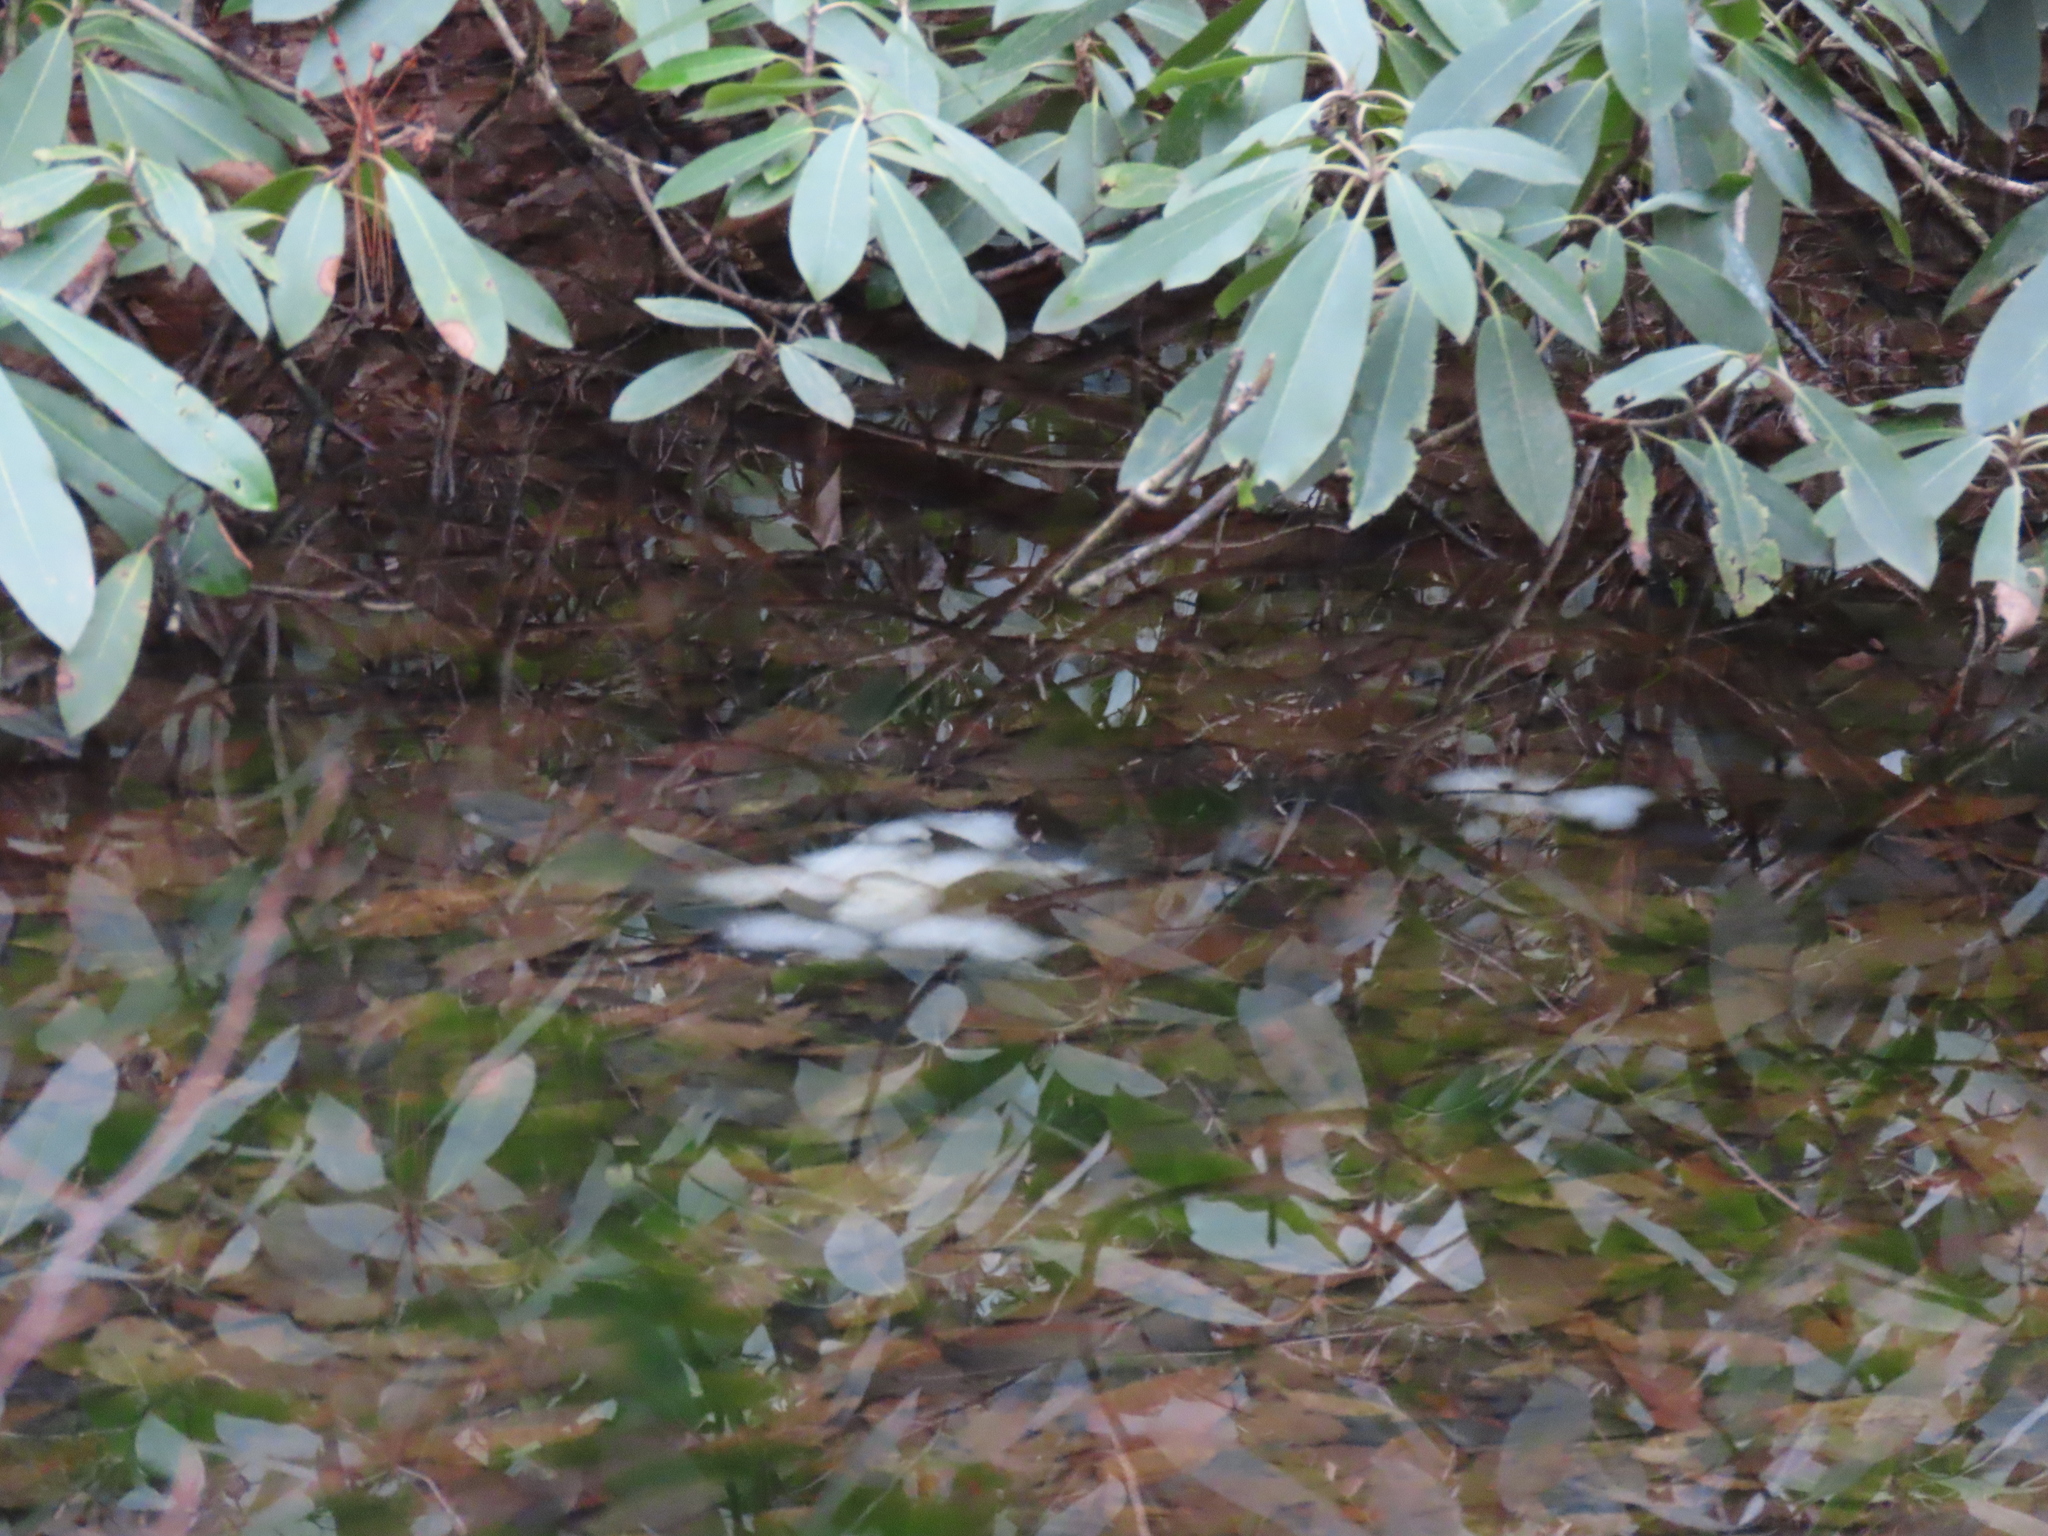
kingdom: Animalia
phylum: Chordata
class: Amphibia
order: Caudata
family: Ambystomatidae
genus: Ambystoma
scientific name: Ambystoma maculatum
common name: Spotted salamander
